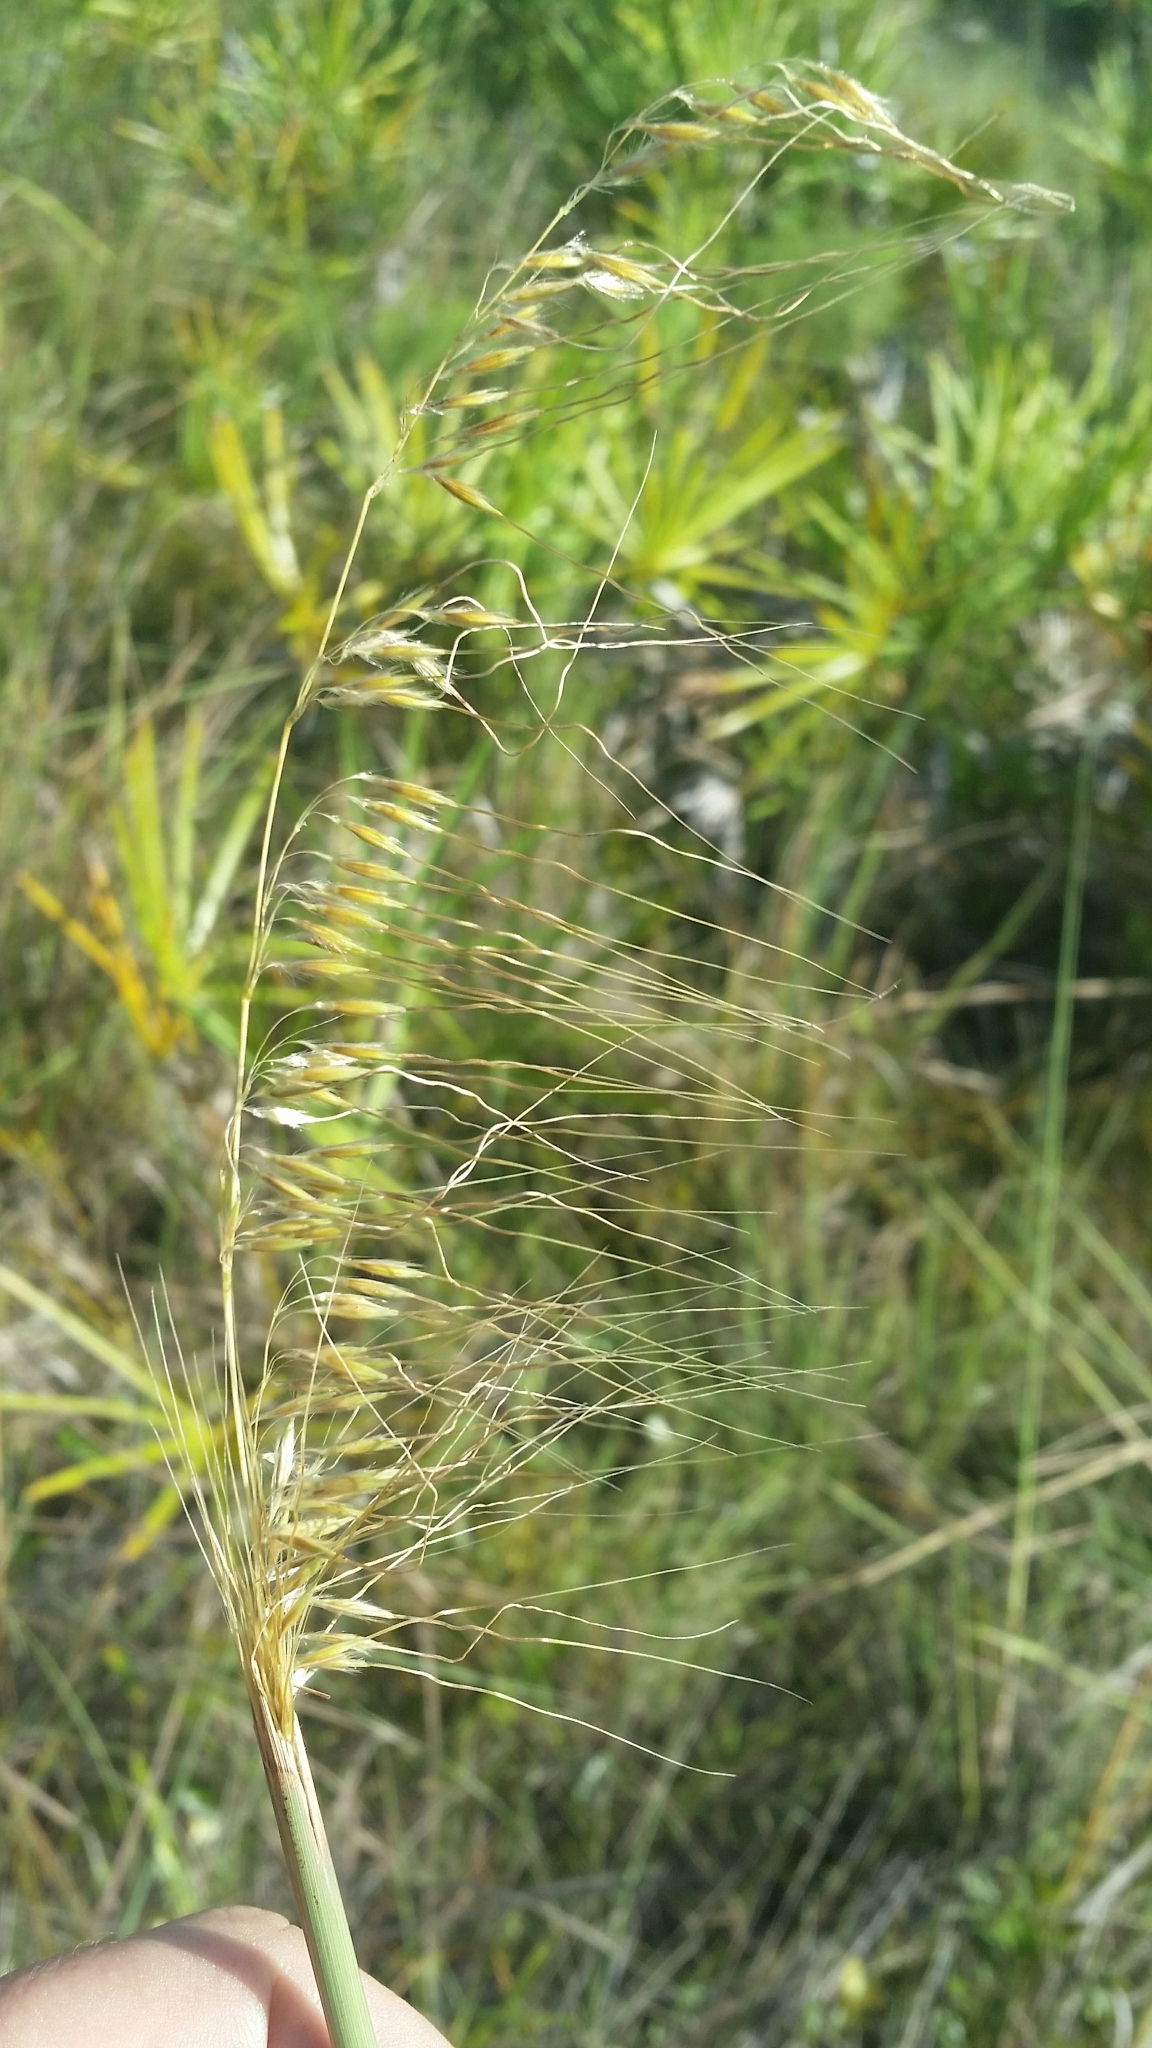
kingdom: Plantae
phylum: Tracheophyta
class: Liliopsida
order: Poales
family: Poaceae
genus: Sorghastrum
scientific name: Sorghastrum secundum
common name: Lopsided indian grass
